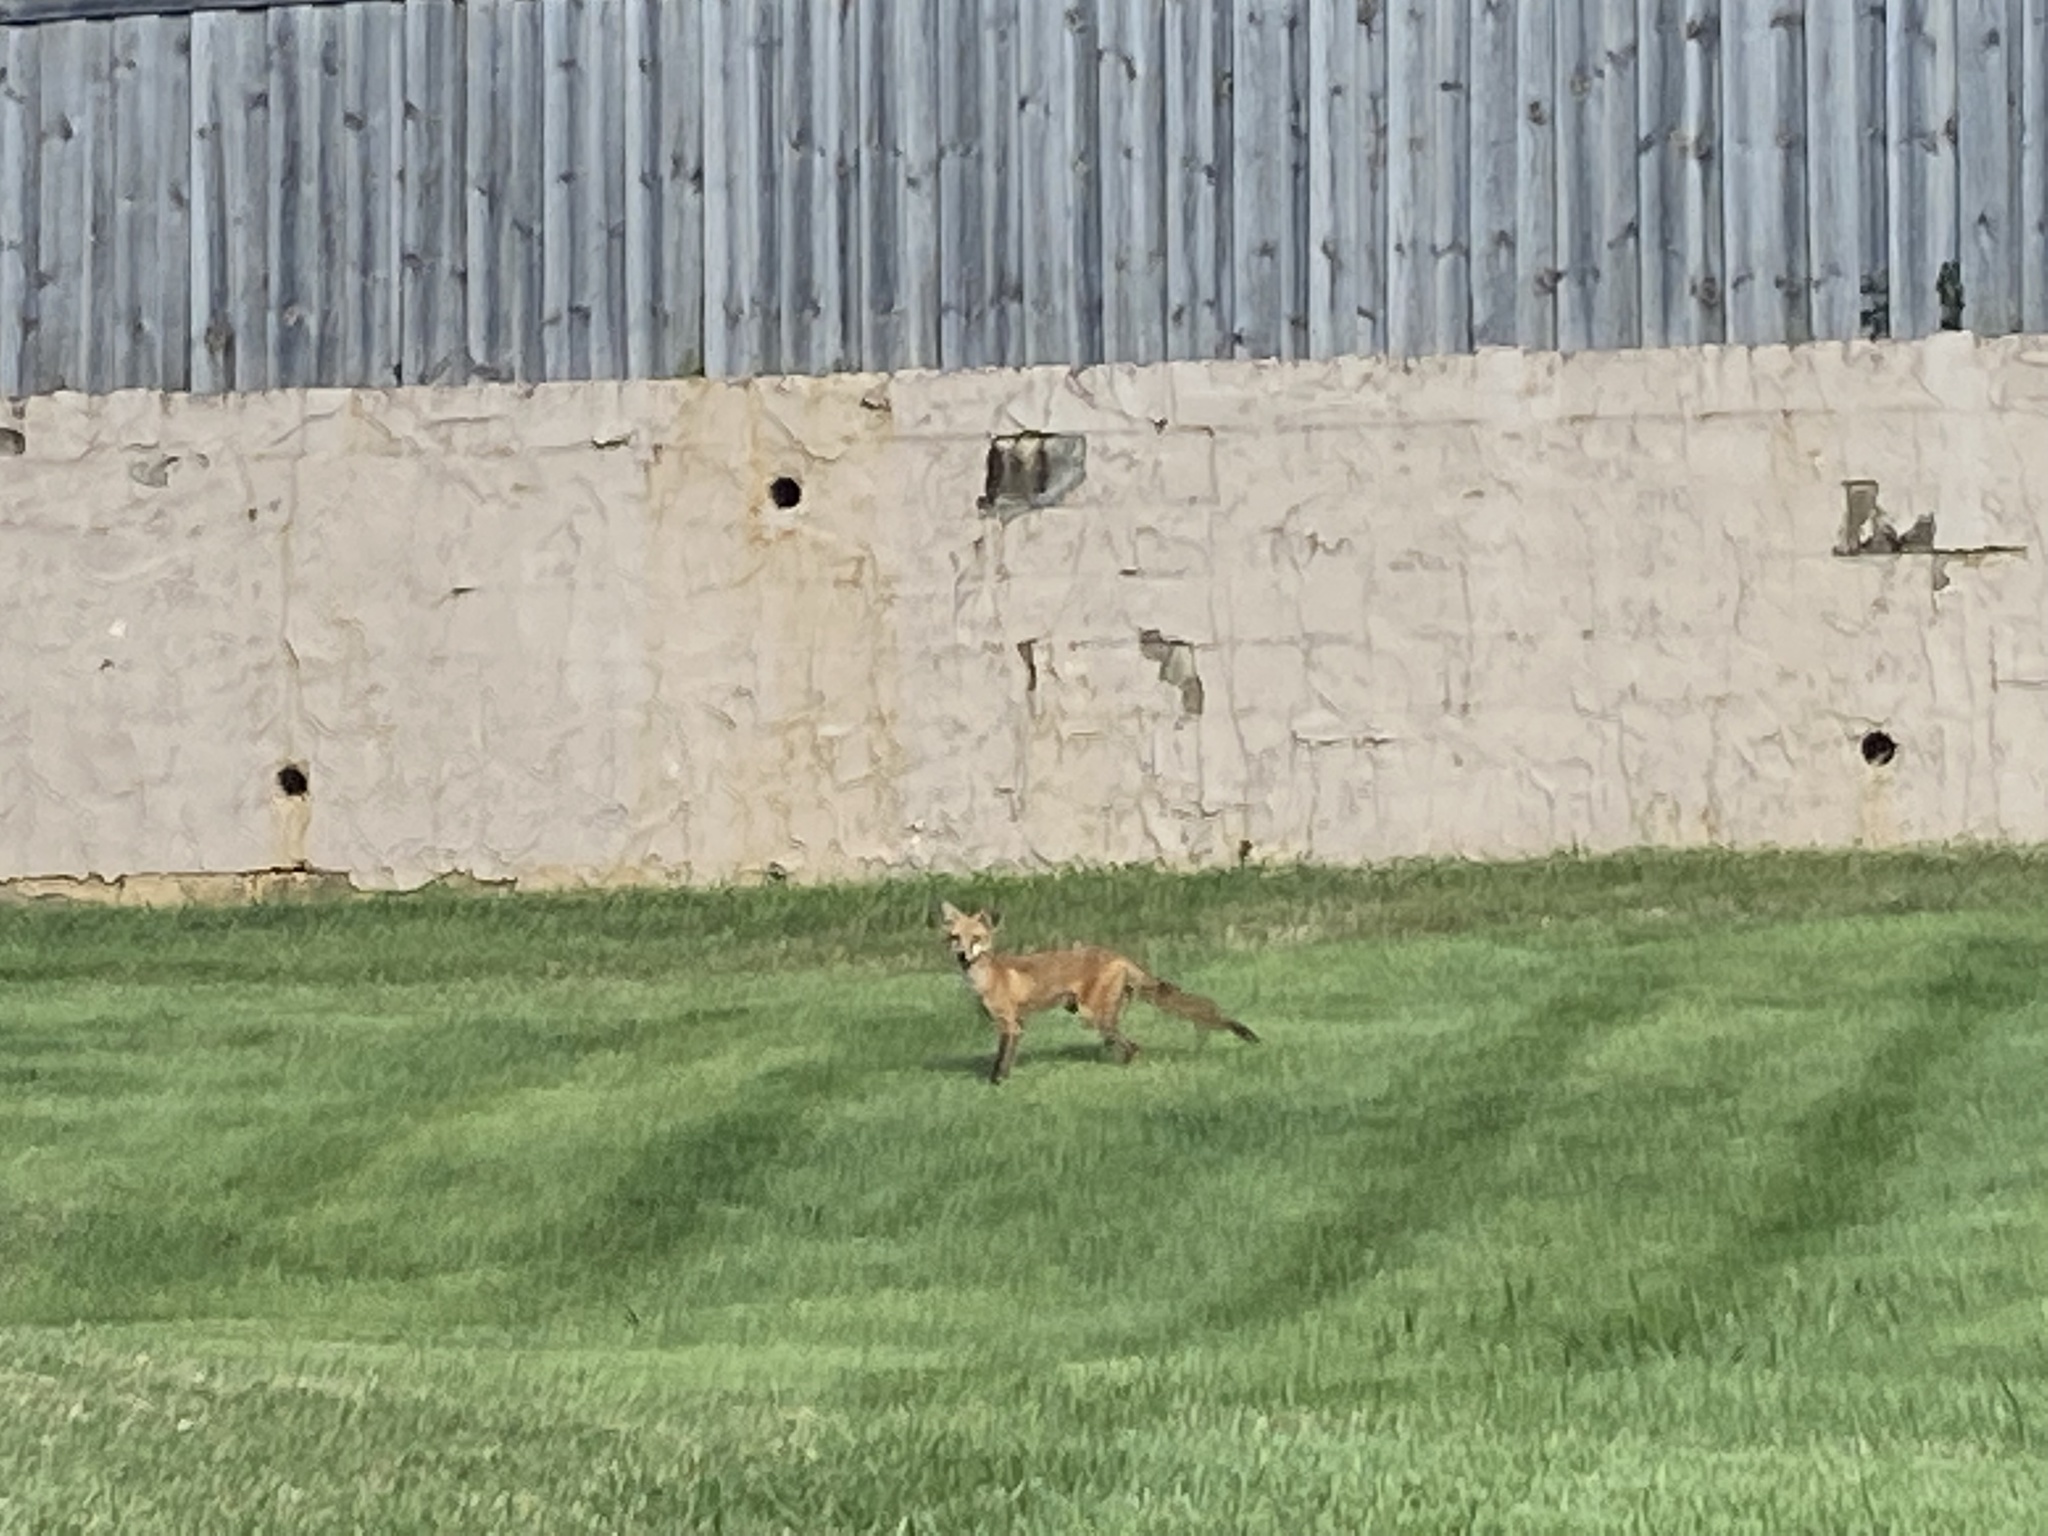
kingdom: Animalia
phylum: Chordata
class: Mammalia
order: Carnivora
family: Canidae
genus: Vulpes
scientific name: Vulpes vulpes
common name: Red fox
